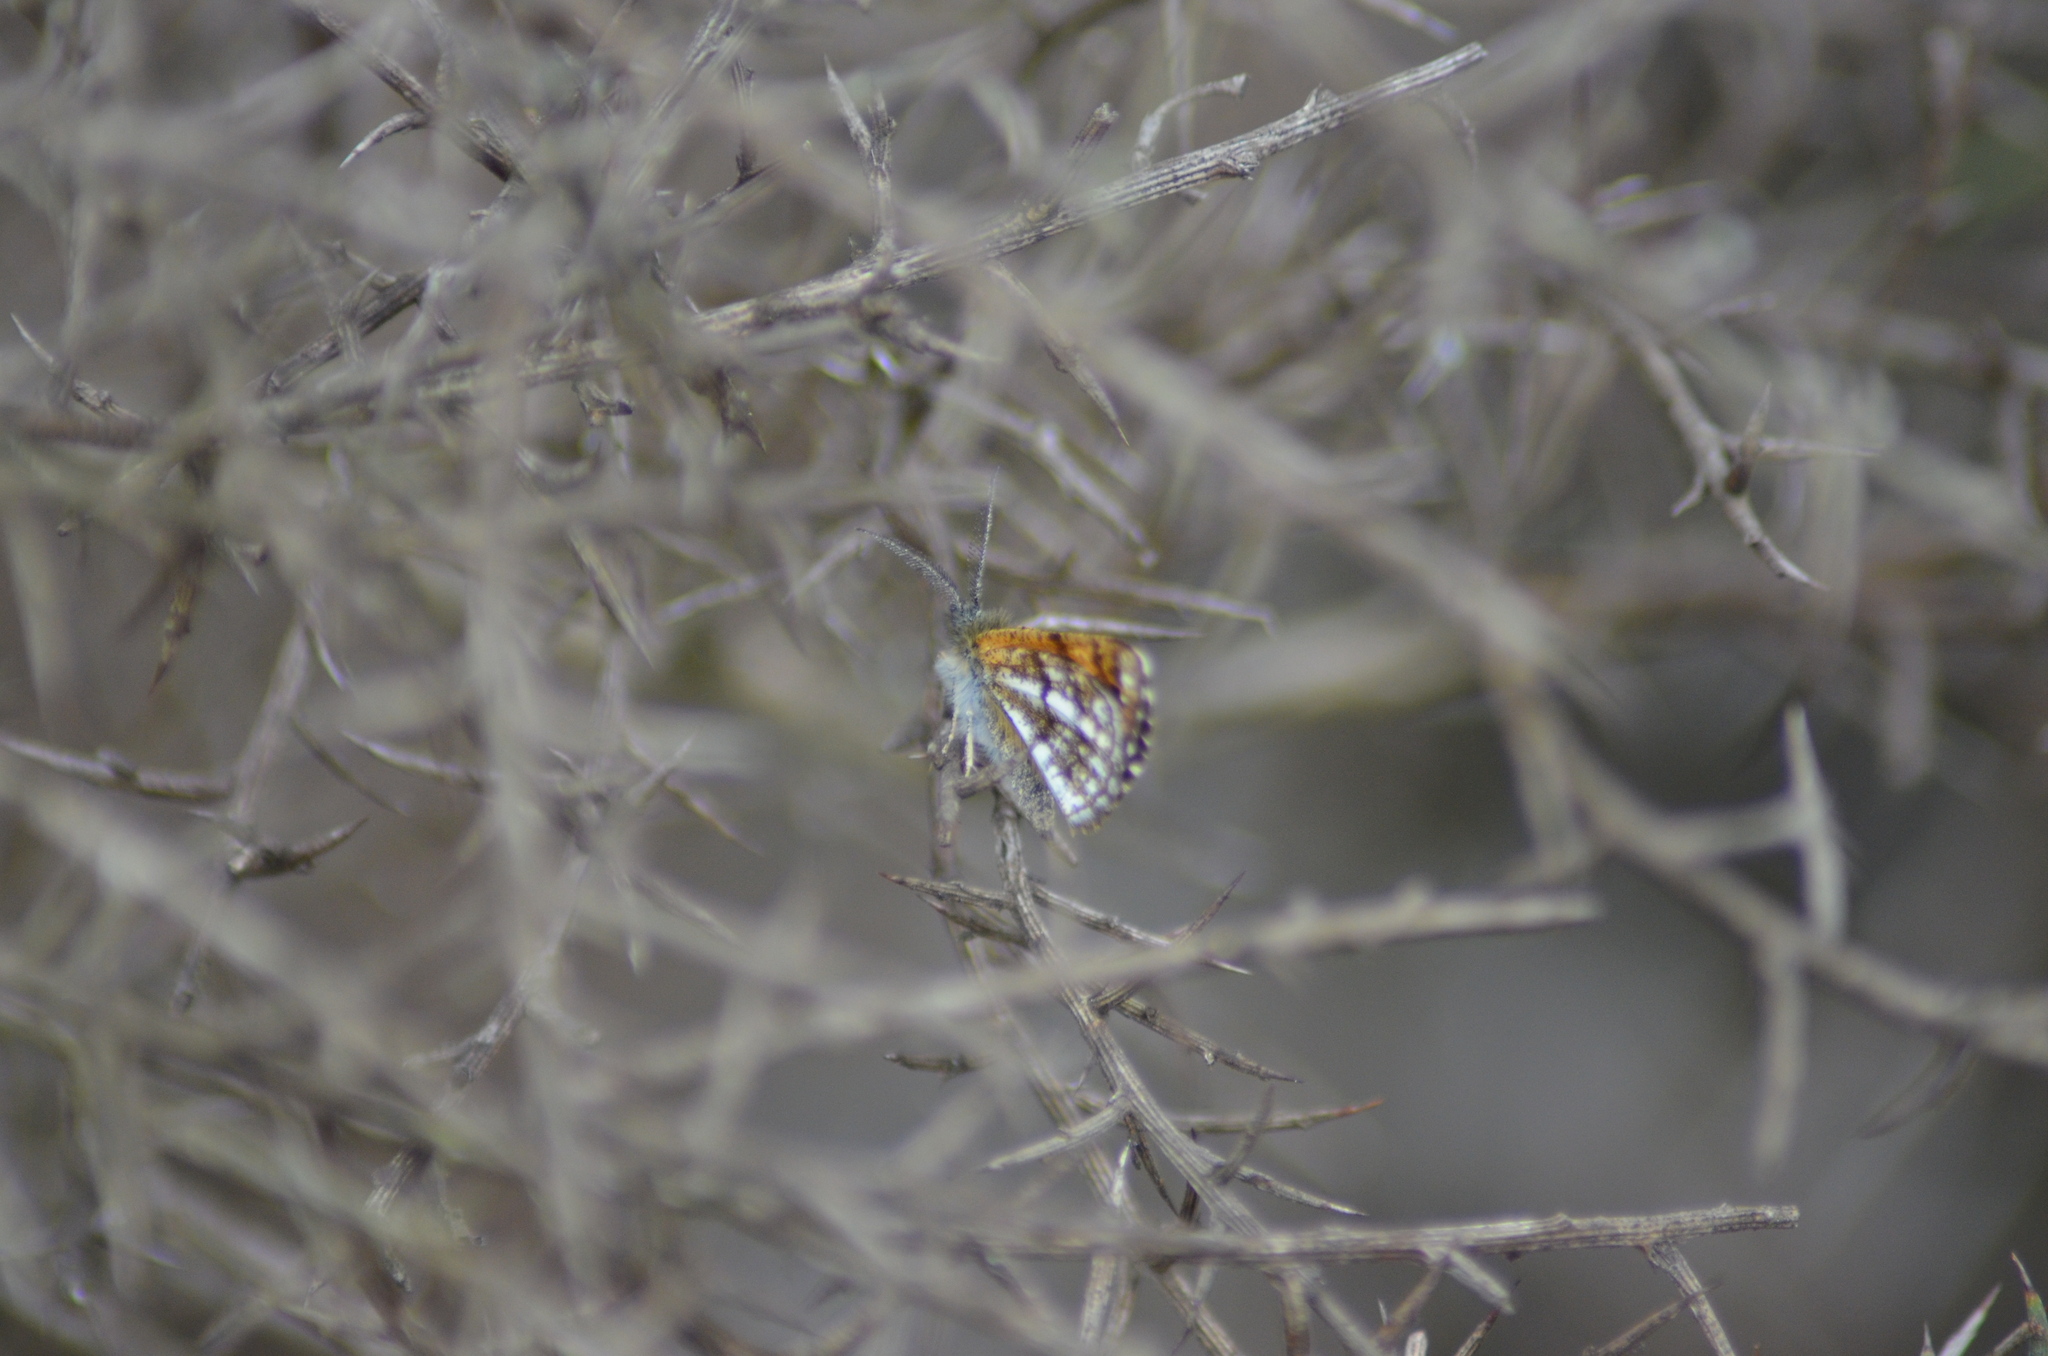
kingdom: Animalia
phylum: Arthropoda
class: Insecta
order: Lepidoptera
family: Geometridae
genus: Isturgia
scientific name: Isturgia famula
